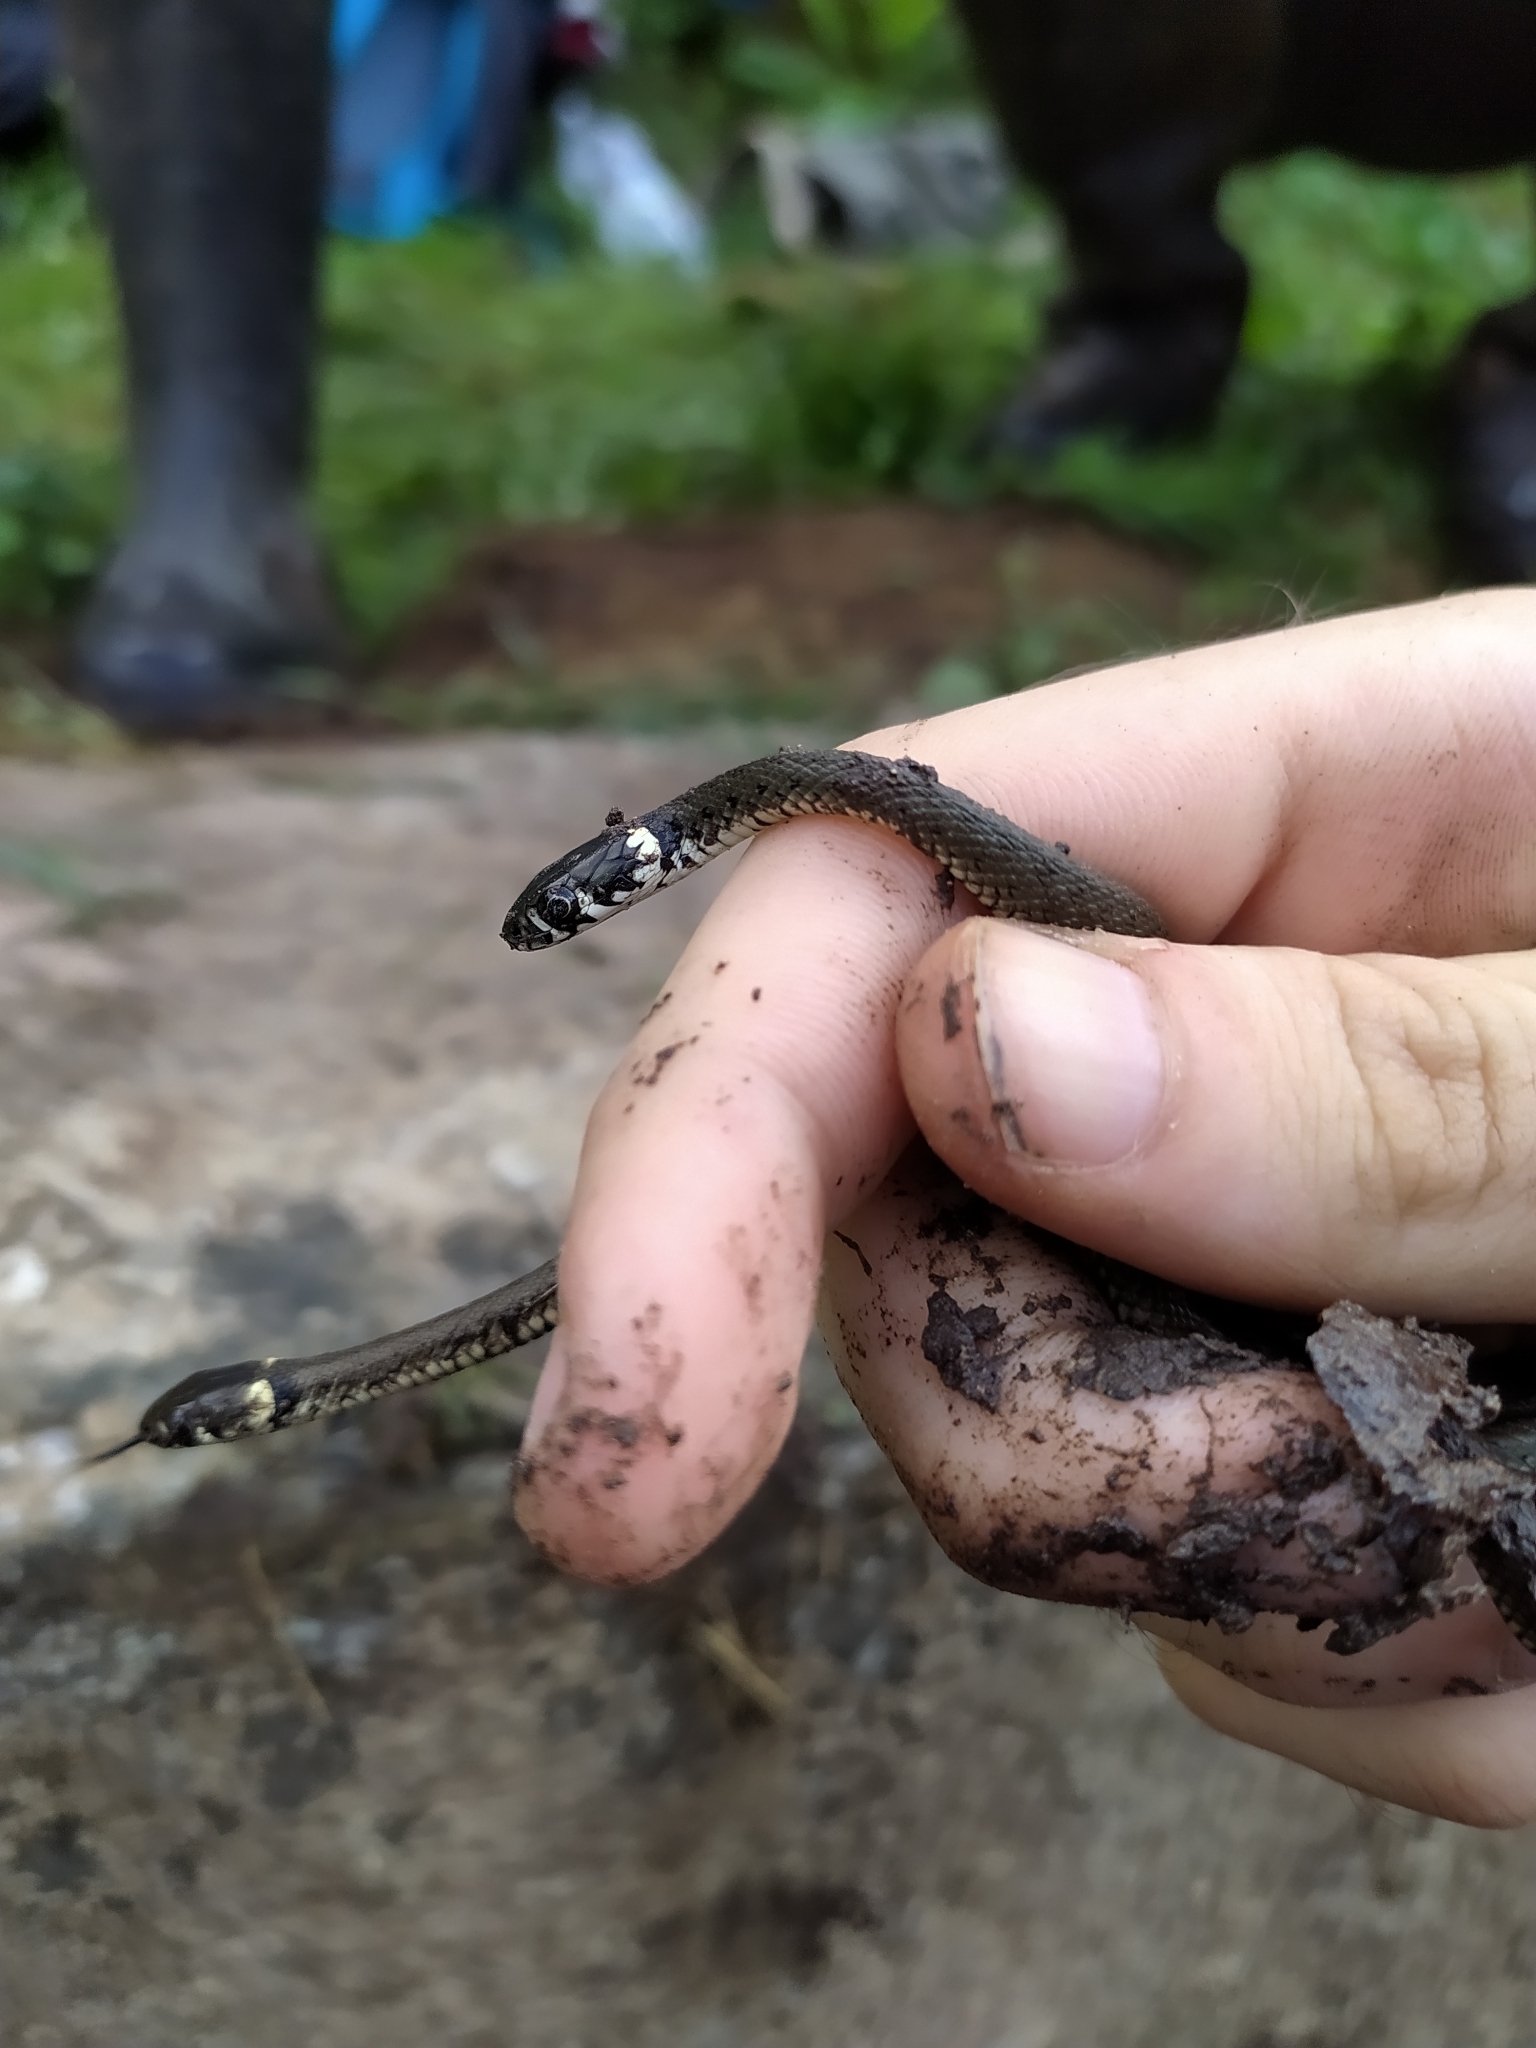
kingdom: Animalia
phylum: Chordata
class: Squamata
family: Colubridae
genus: Natrix
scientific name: Natrix natrix
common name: Grass snake
